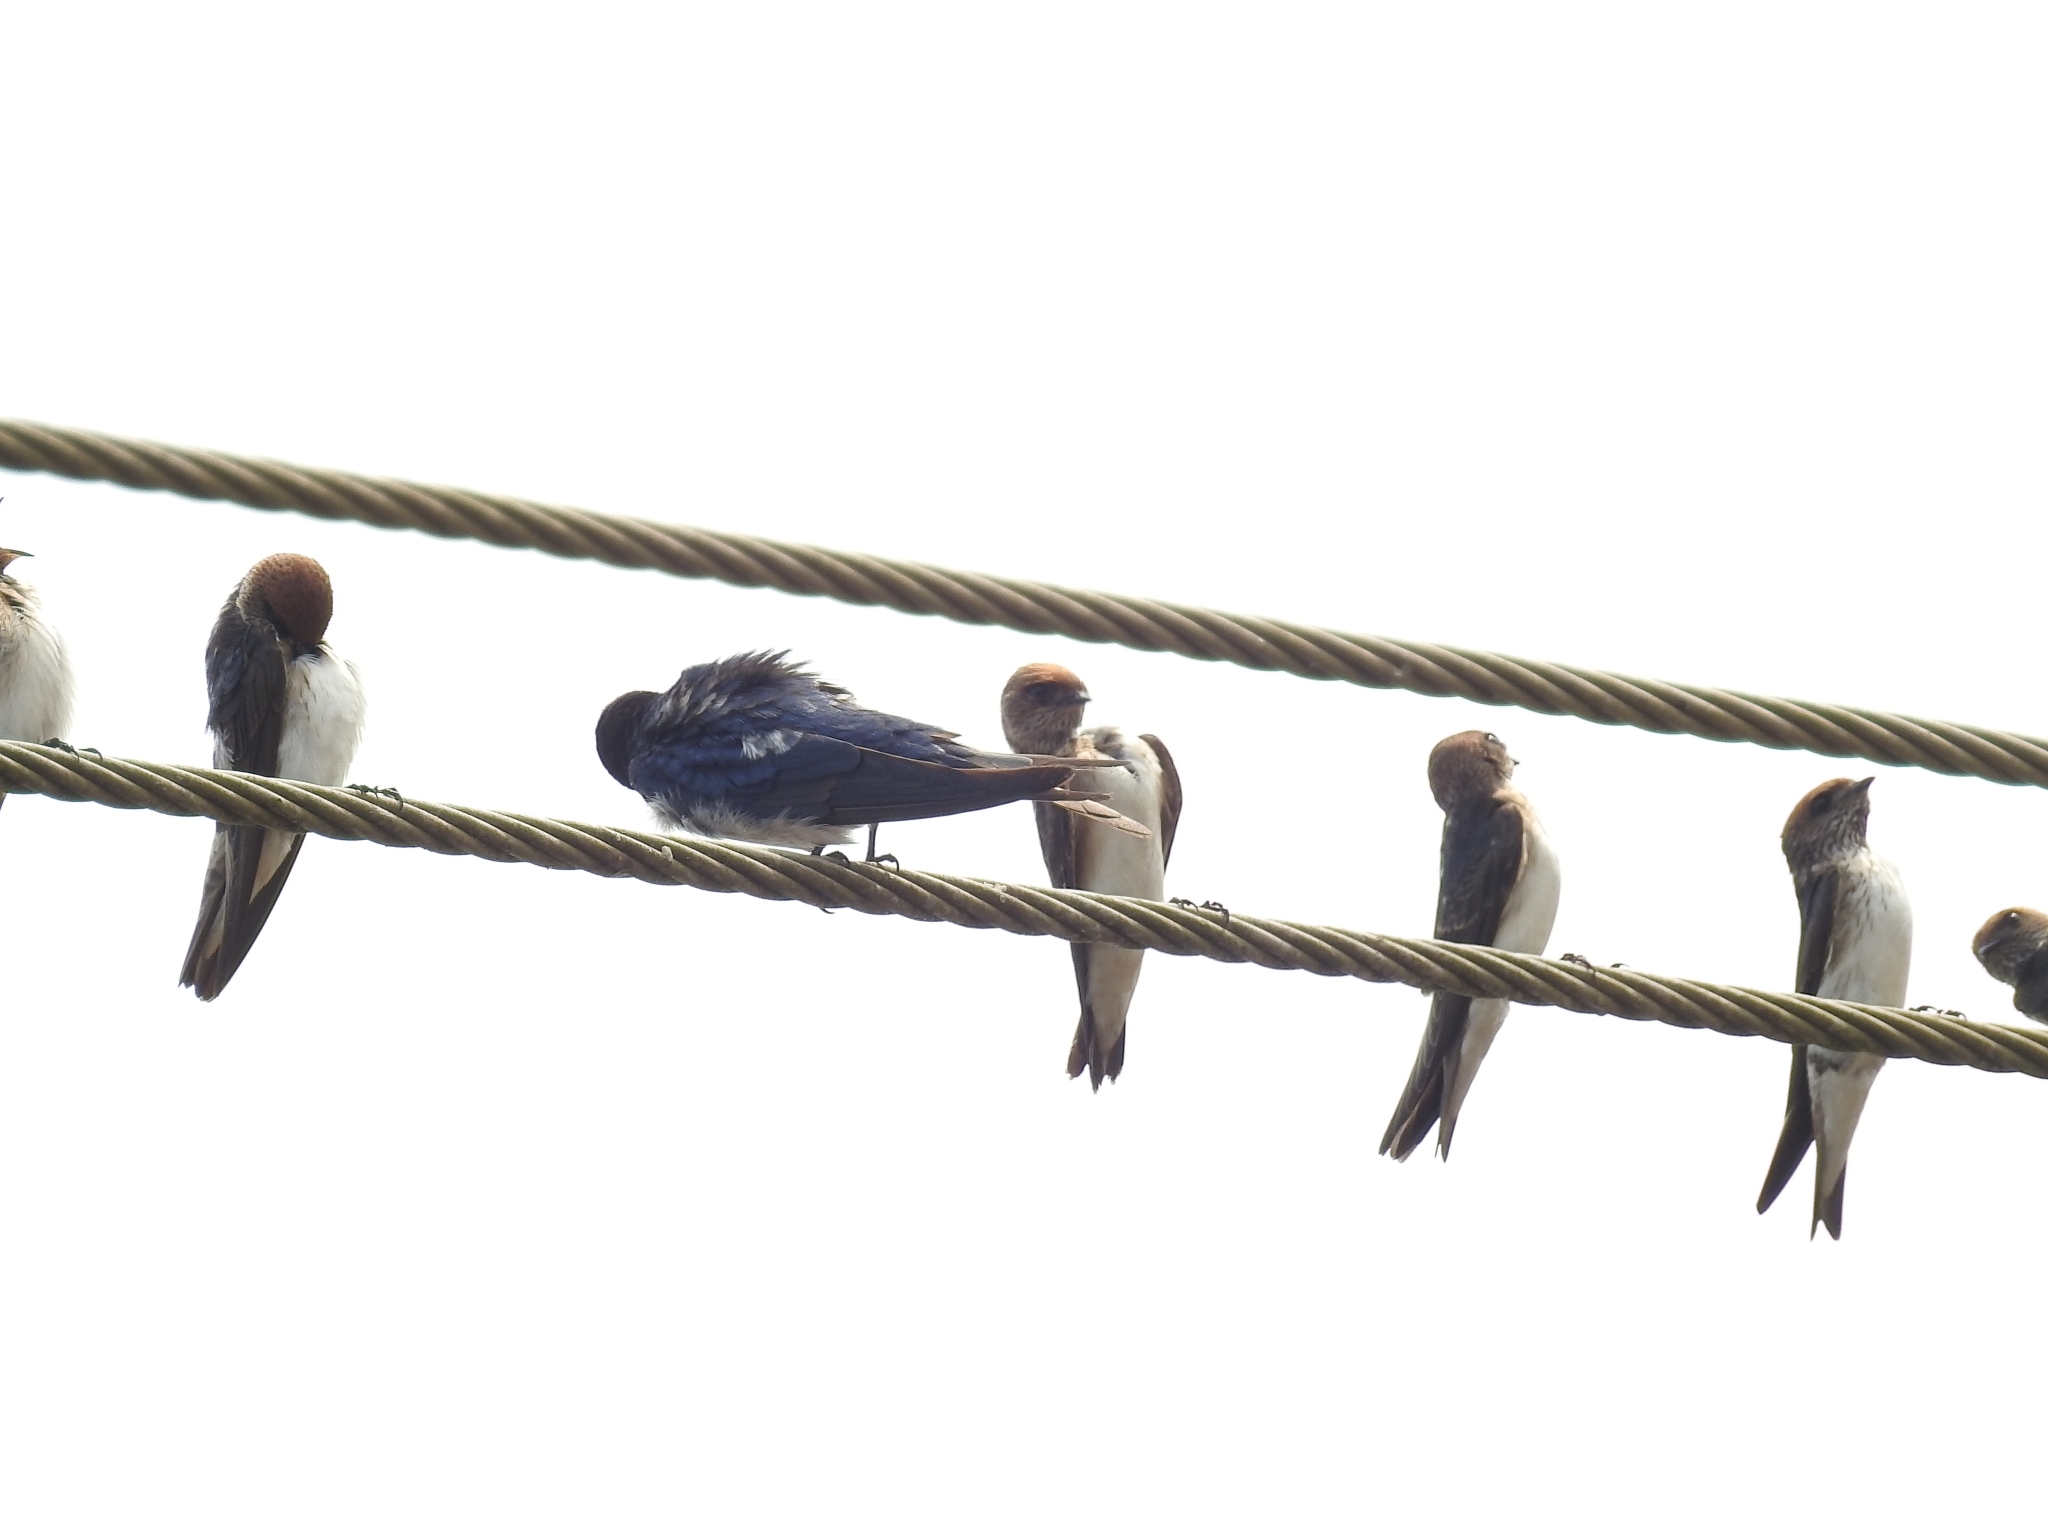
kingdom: Animalia
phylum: Chordata
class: Aves
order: Passeriformes
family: Hirundinidae
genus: Petrochelidon
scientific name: Petrochelidon fluvicola
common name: Streak-throated swallow
